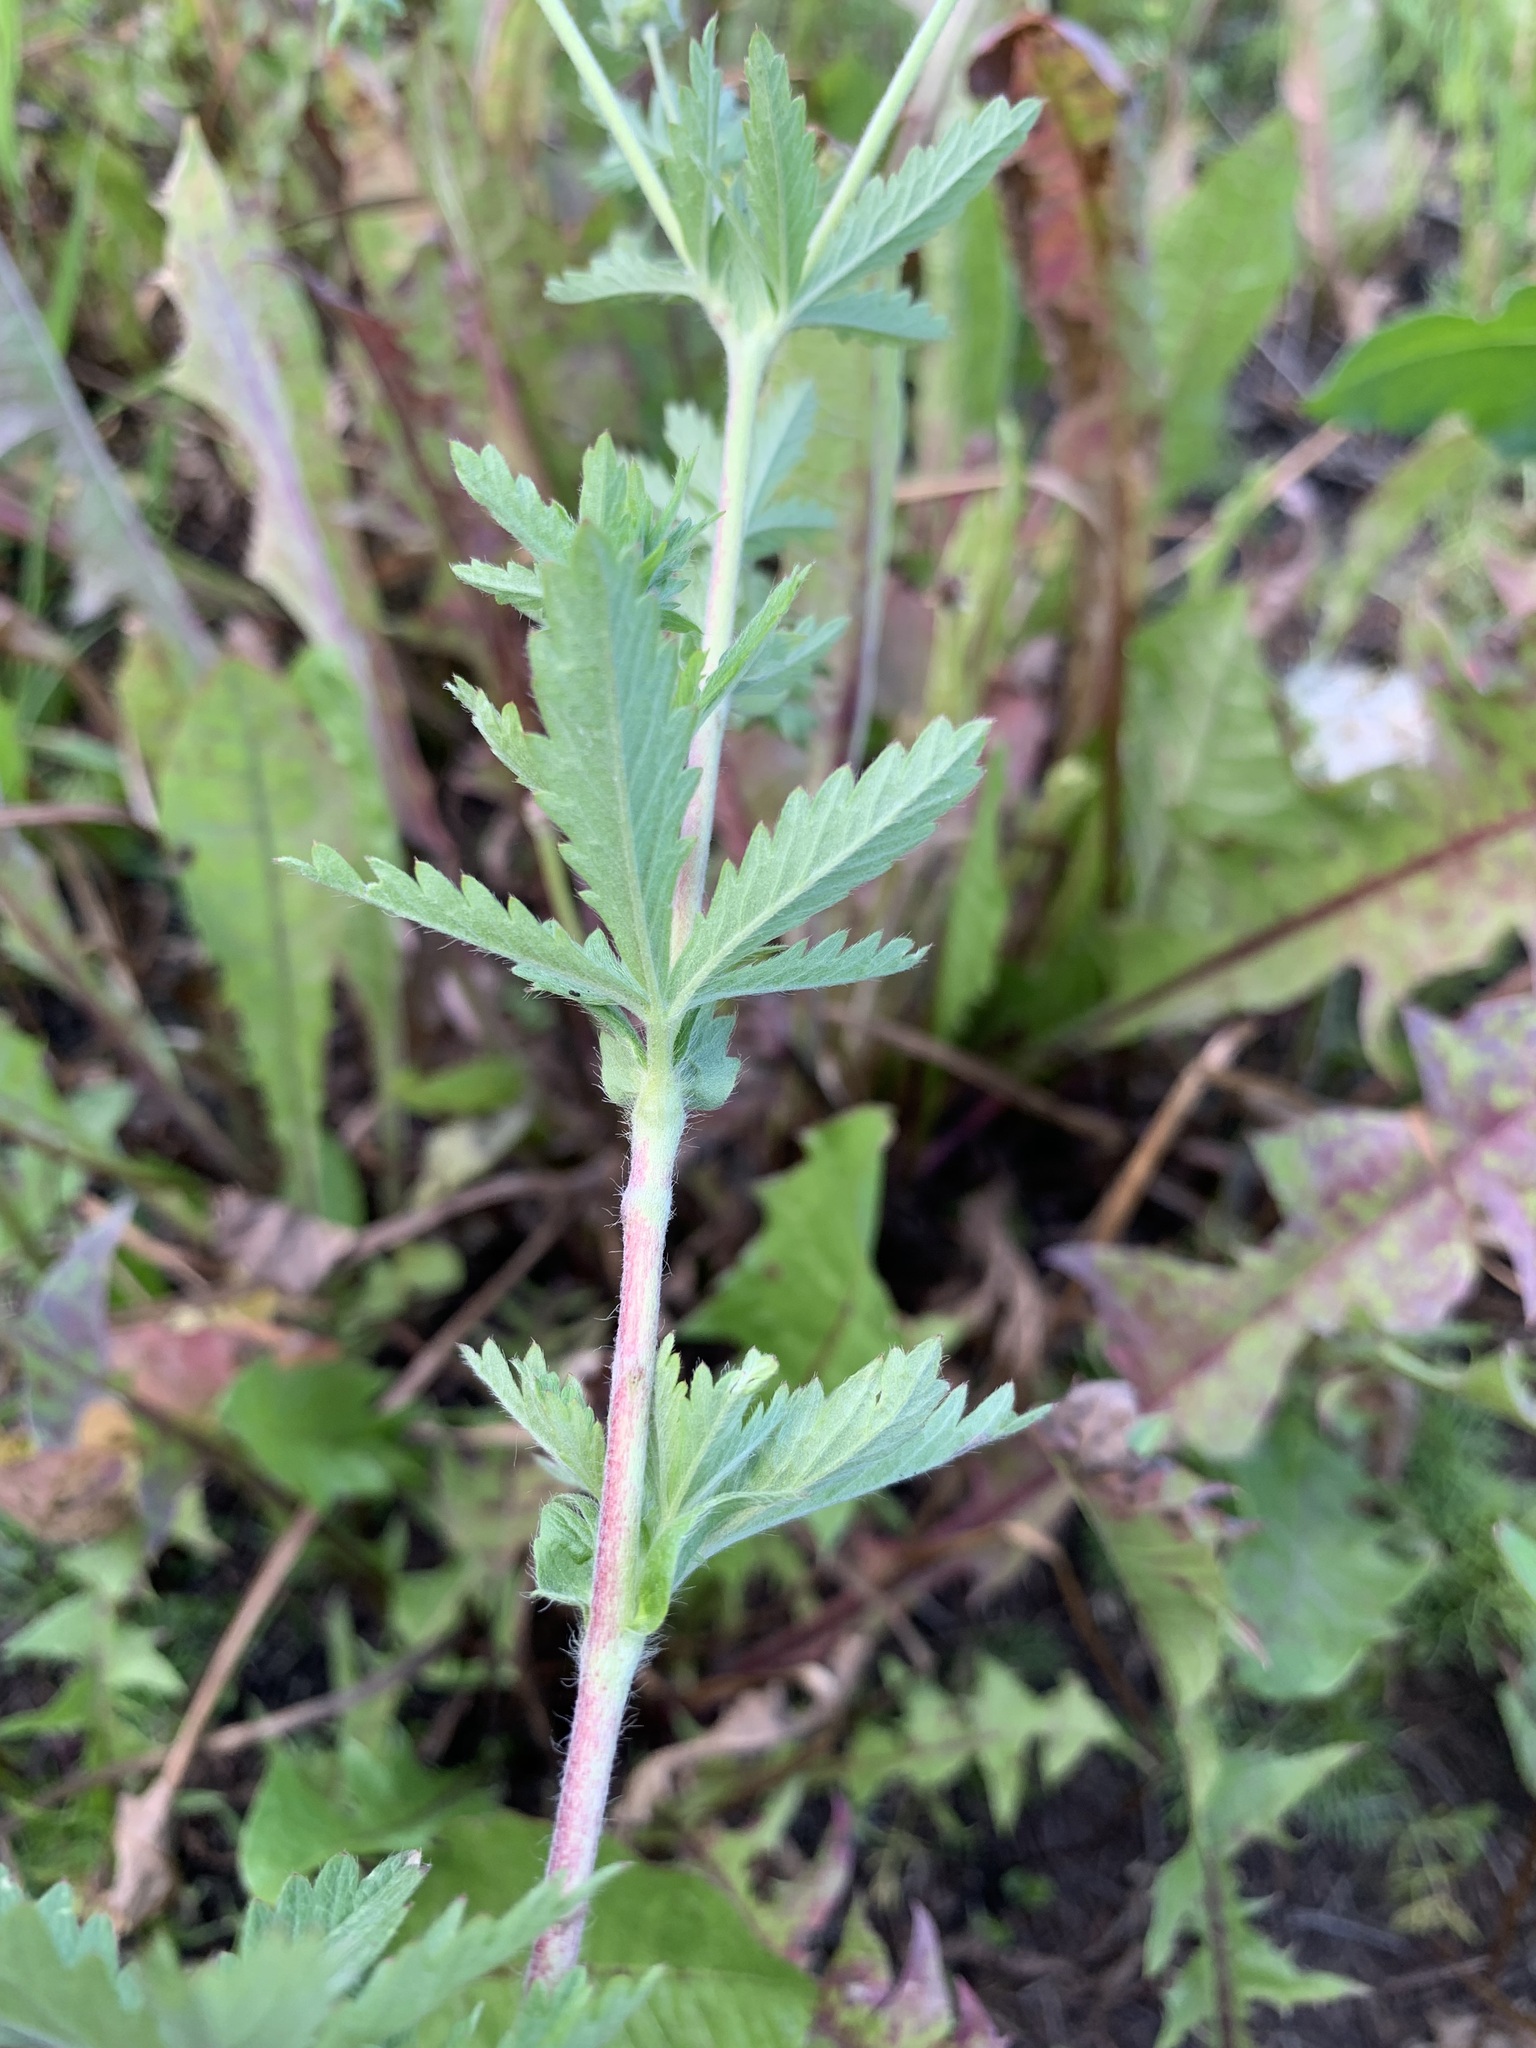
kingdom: Plantae
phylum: Tracheophyta
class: Magnoliopsida
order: Rosales
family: Rosaceae
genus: Potentilla
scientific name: Potentilla intermedia
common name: Downy cinquefoil
